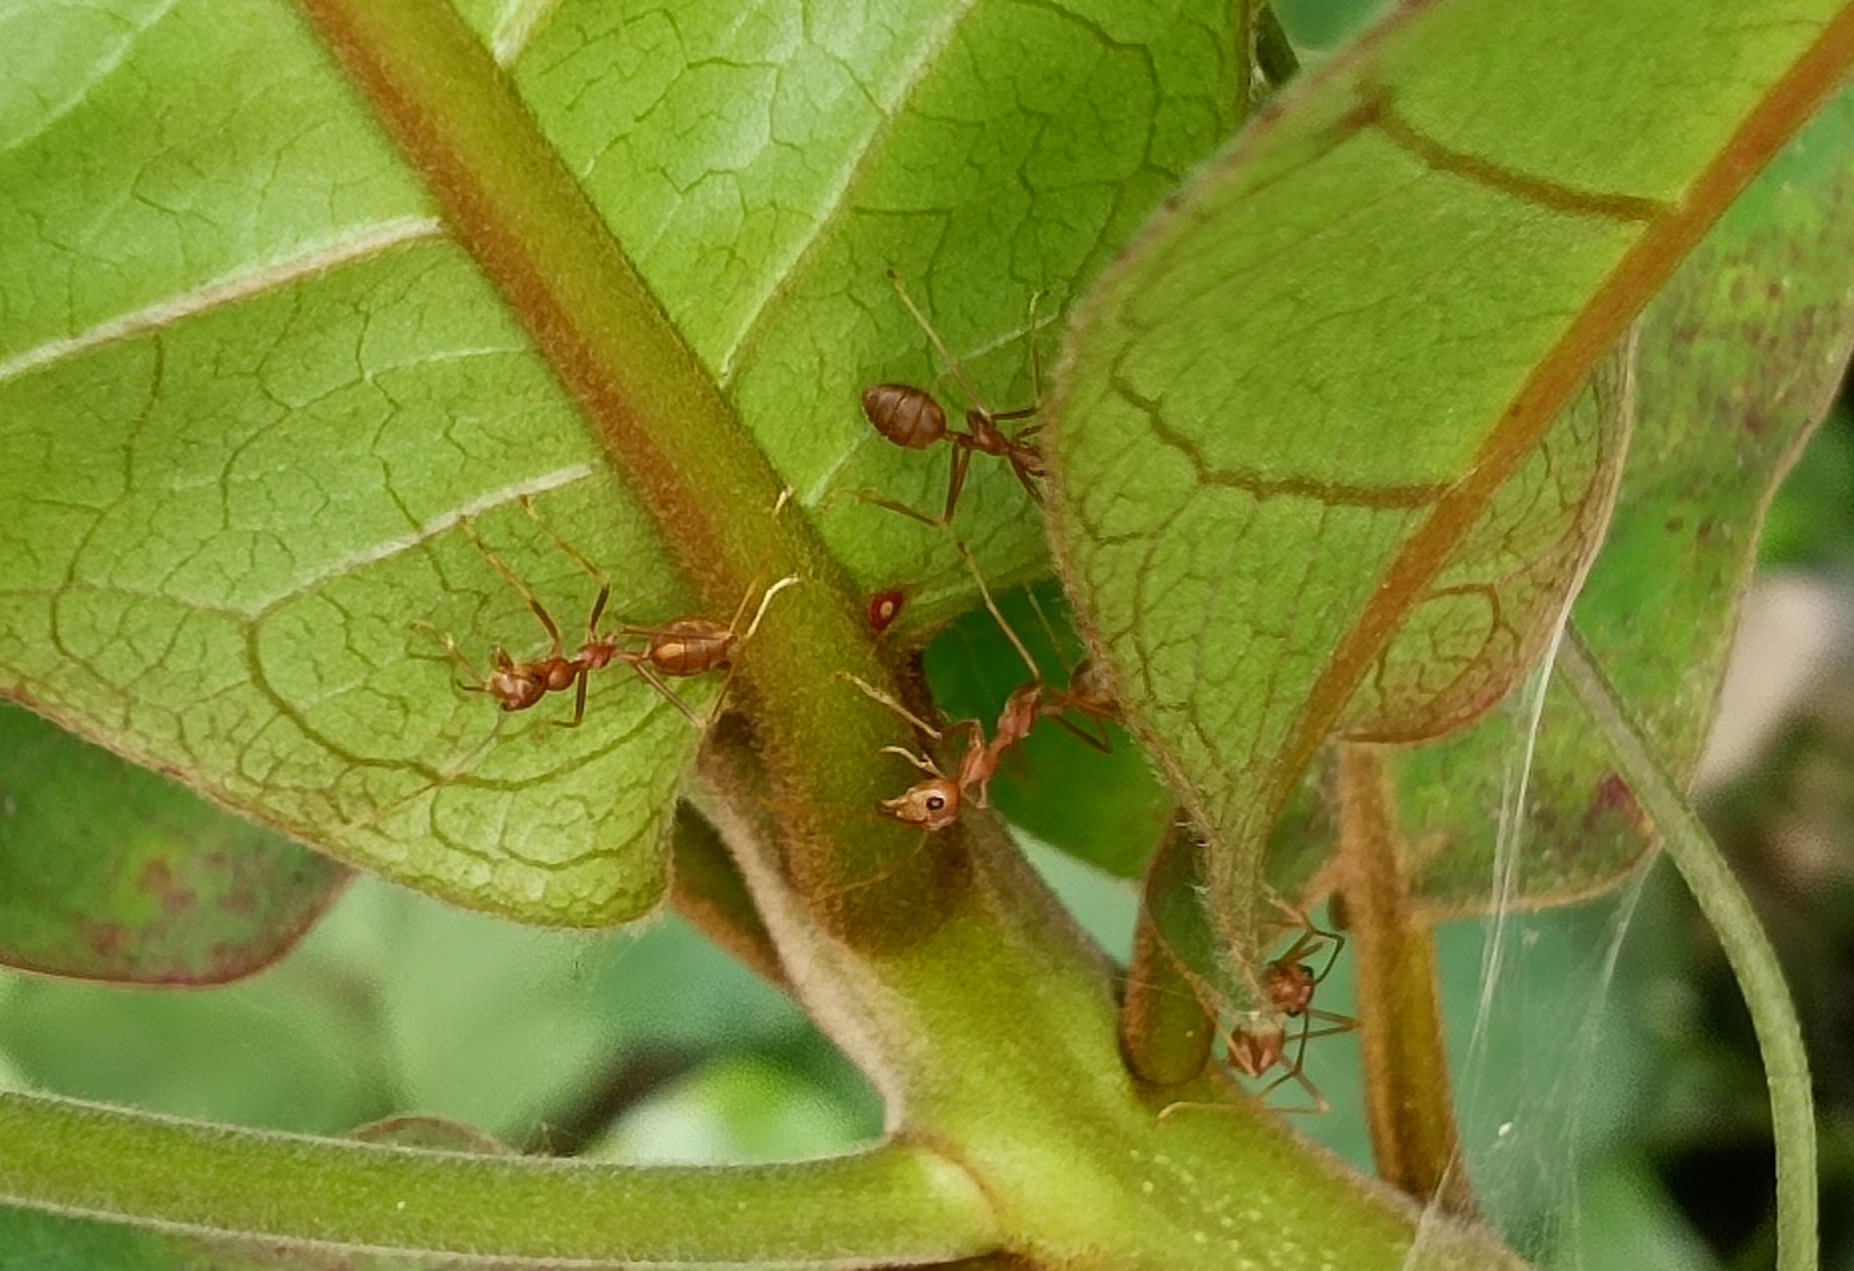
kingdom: Animalia
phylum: Arthropoda
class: Insecta
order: Hymenoptera
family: Formicidae
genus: Oecophylla
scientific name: Oecophylla smaragdina
